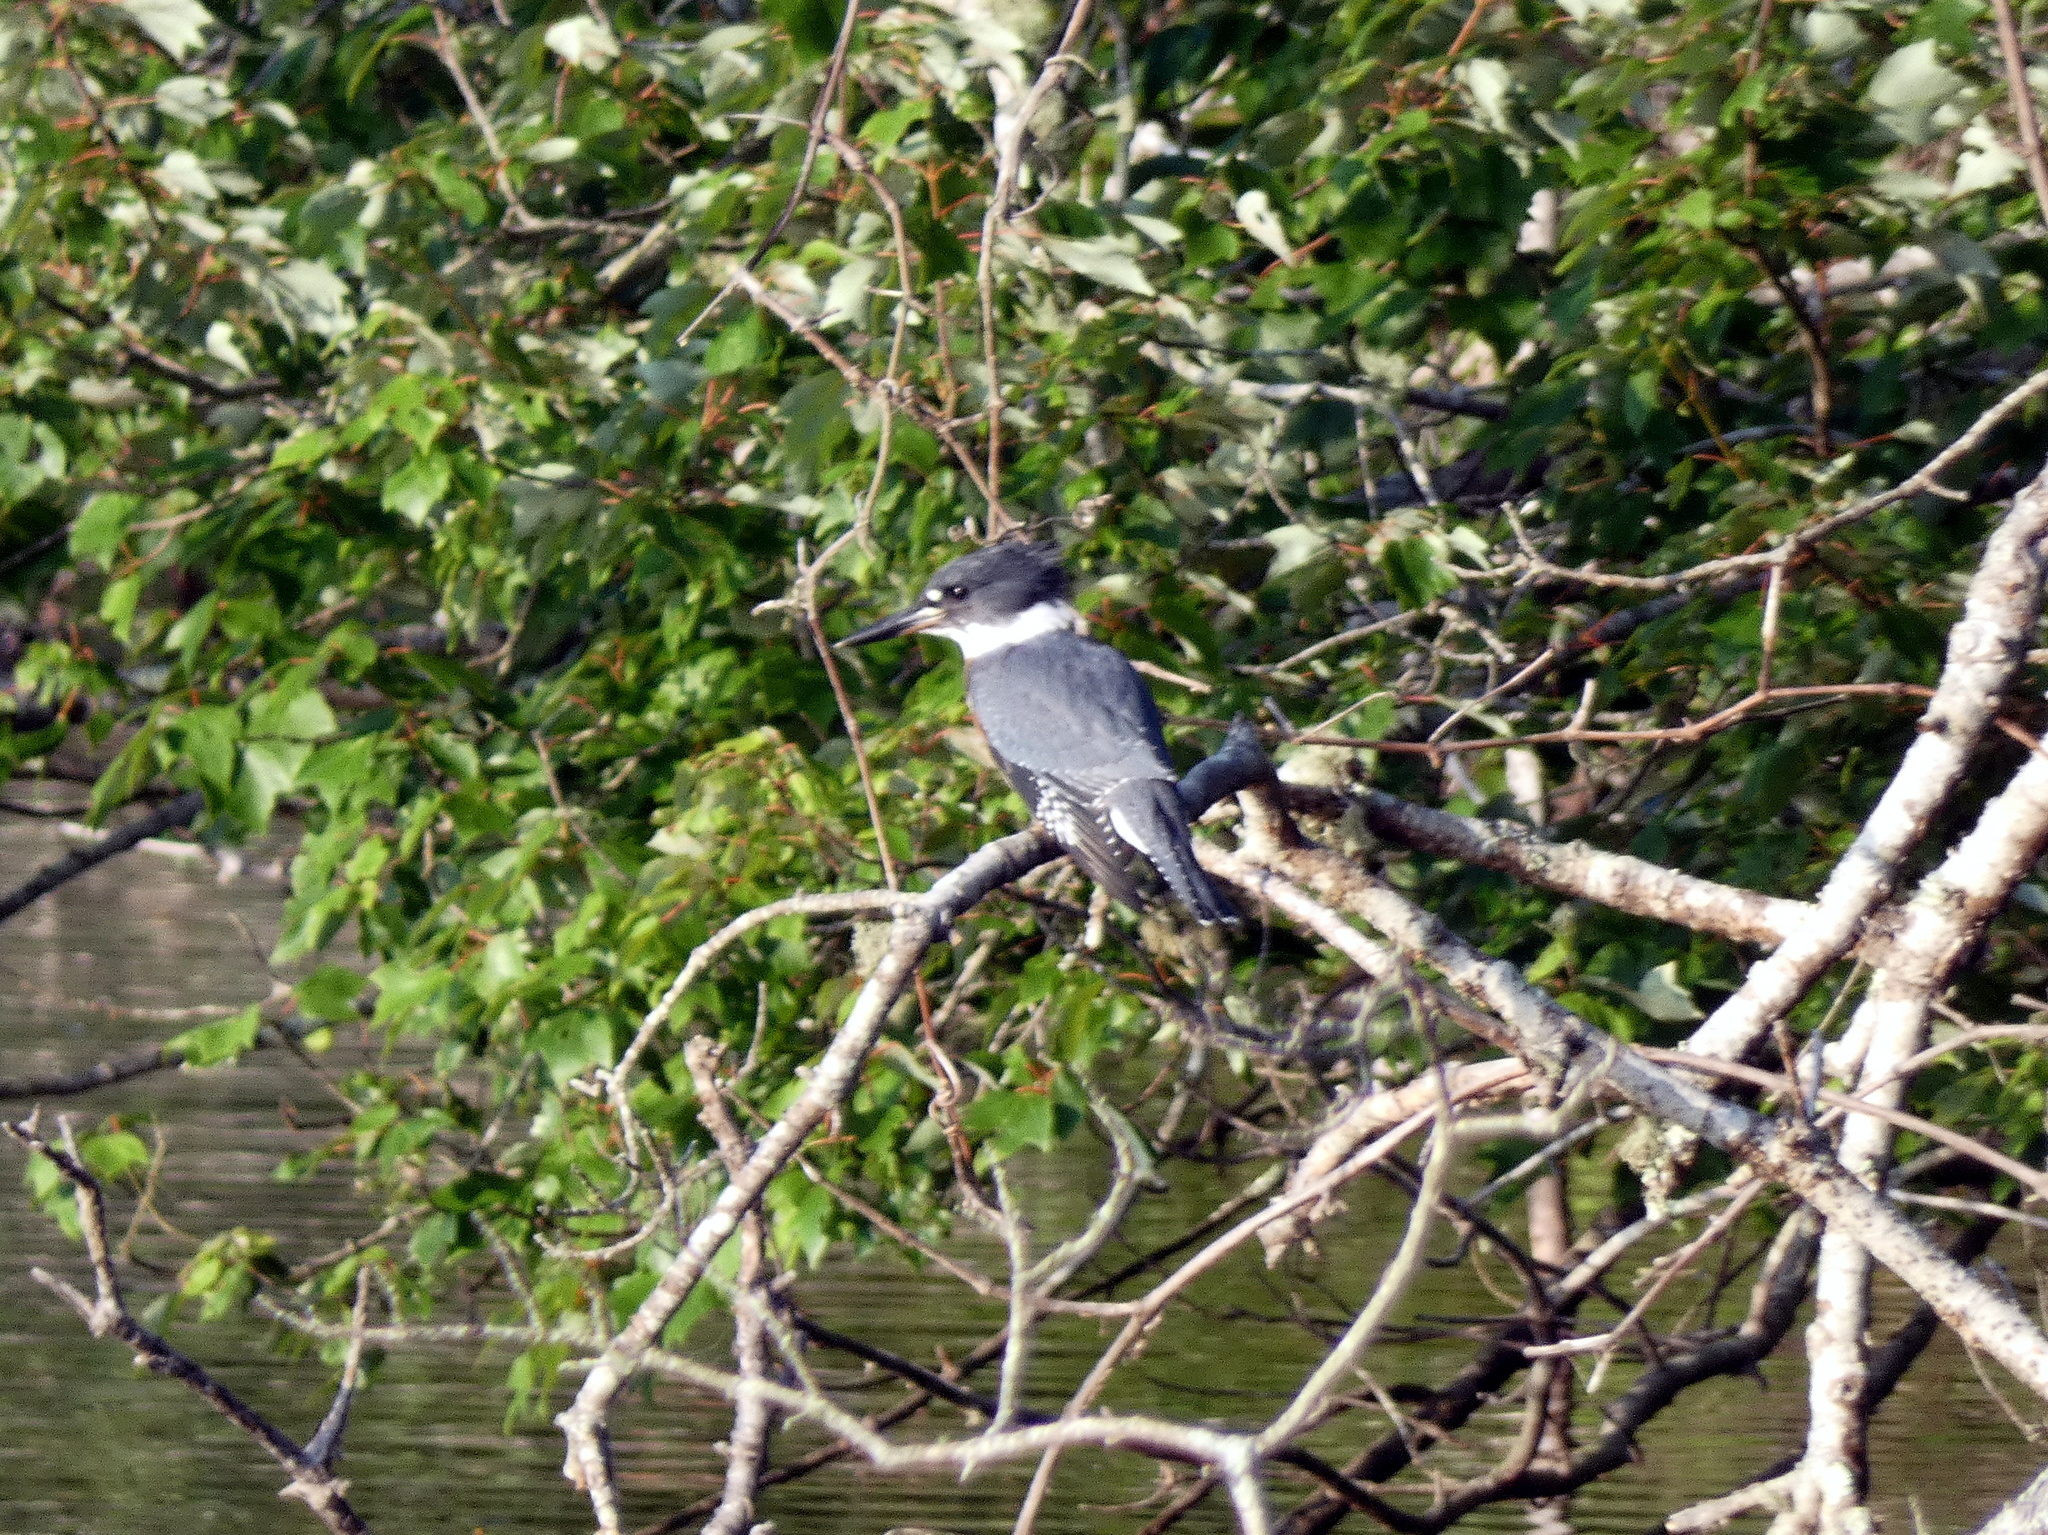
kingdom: Animalia
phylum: Chordata
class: Aves
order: Coraciiformes
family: Alcedinidae
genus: Megaceryle
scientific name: Megaceryle alcyon
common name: Belted kingfisher
